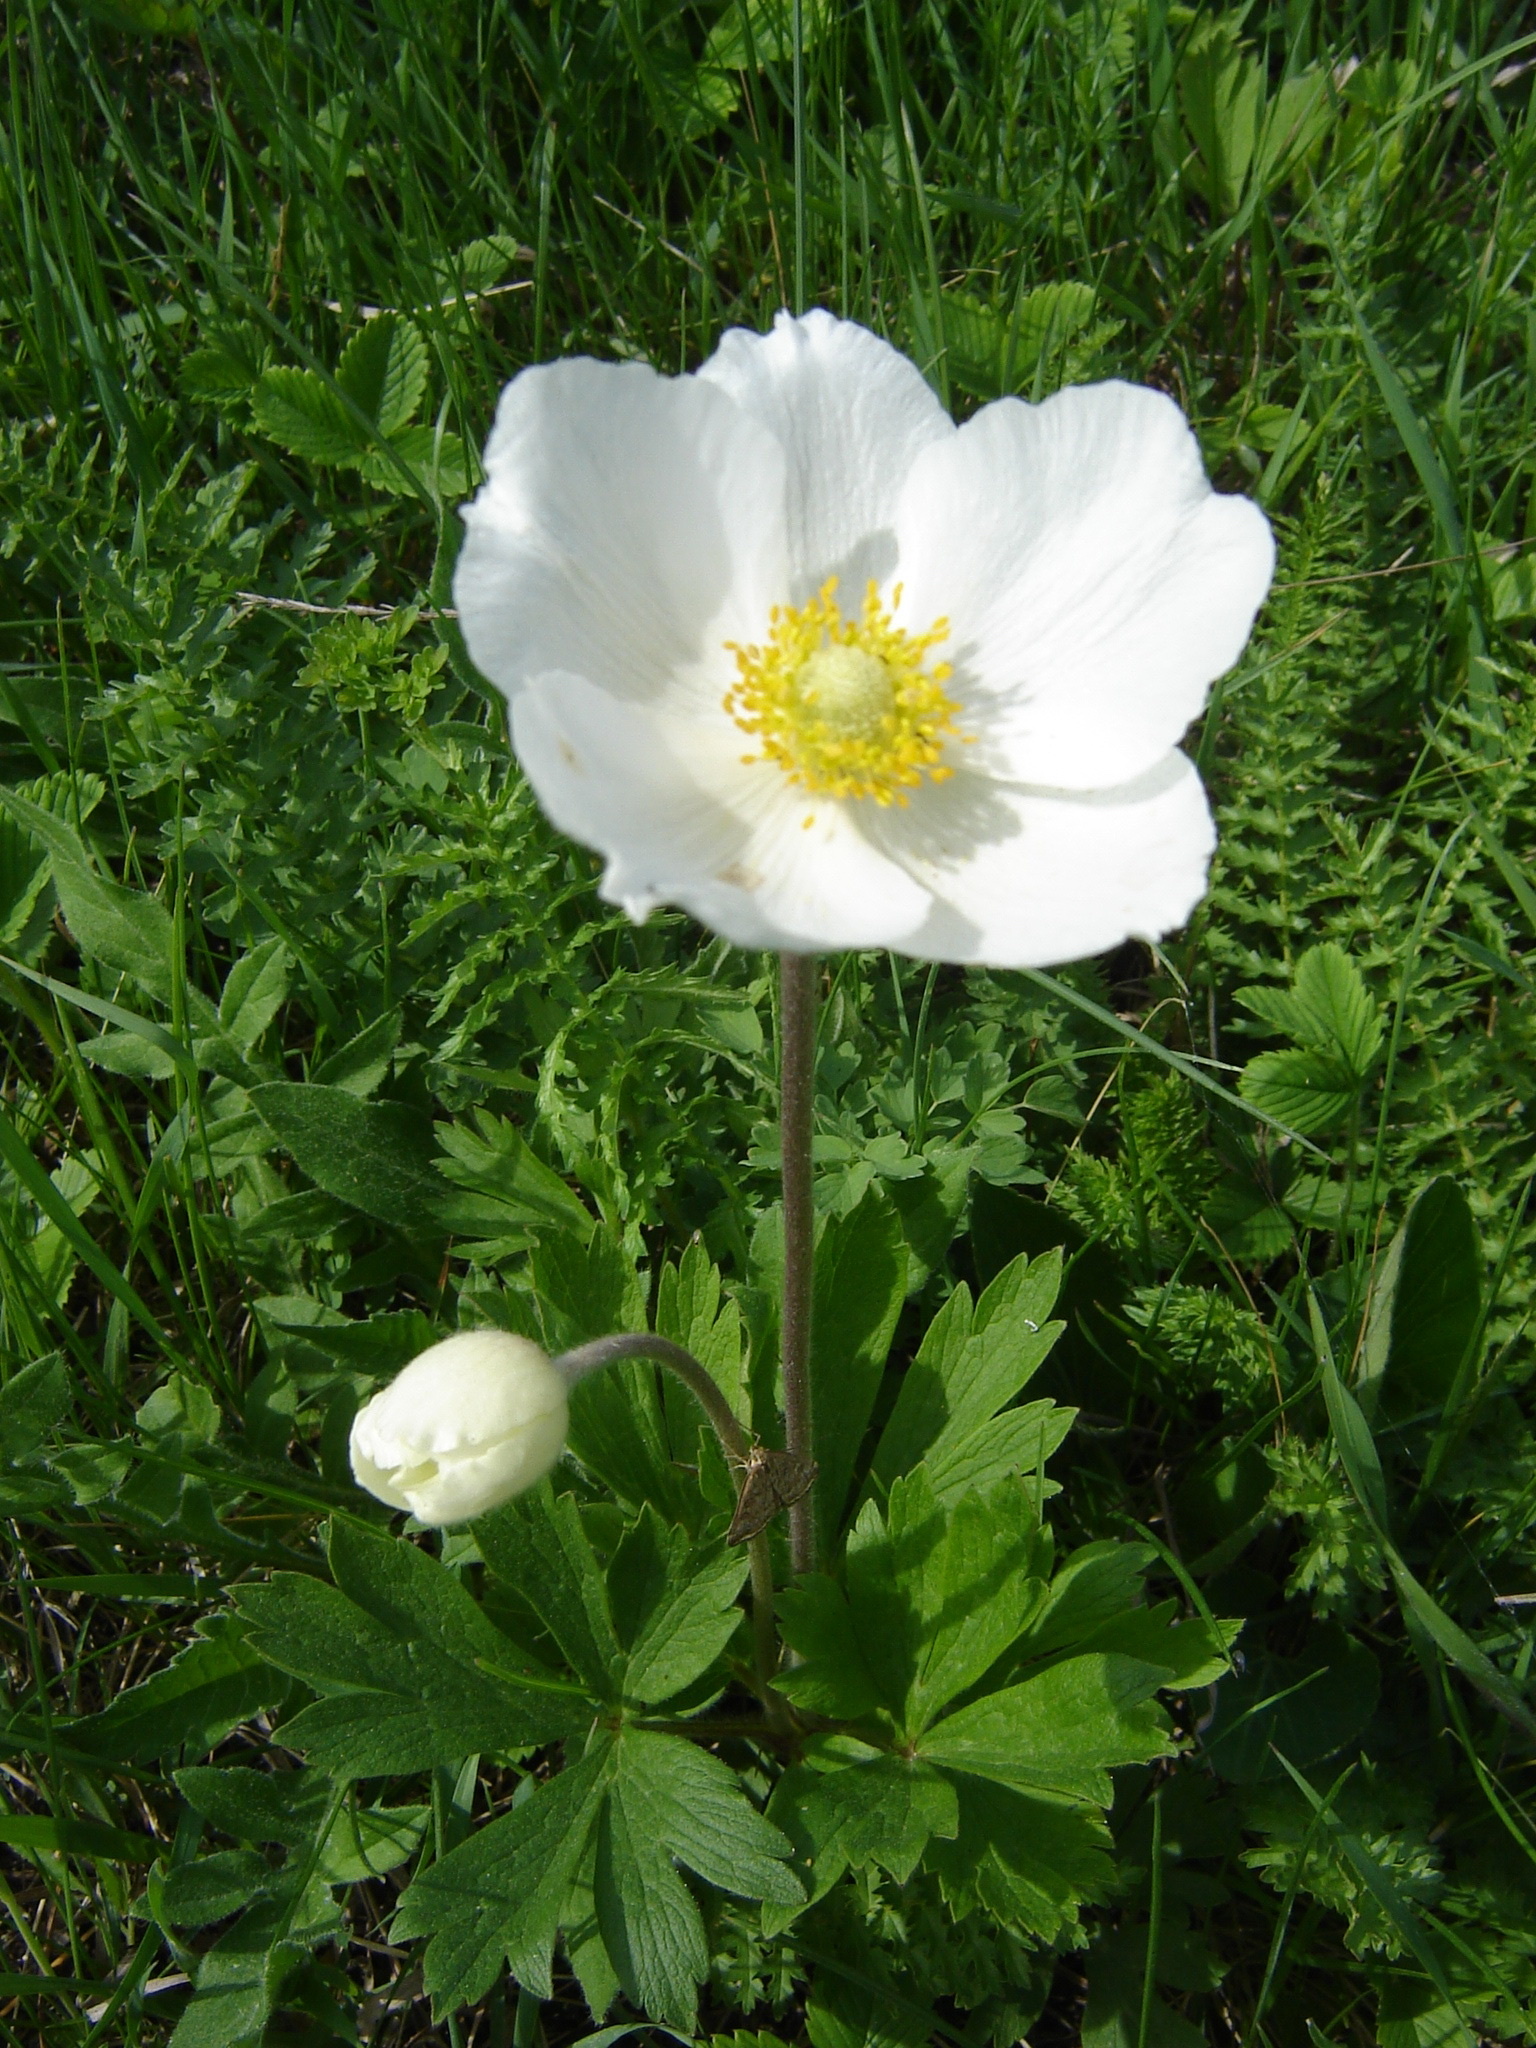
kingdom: Plantae
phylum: Tracheophyta
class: Magnoliopsida
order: Ranunculales
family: Ranunculaceae
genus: Anemone
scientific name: Anemone sylvestris
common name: Snowdrop anemone
